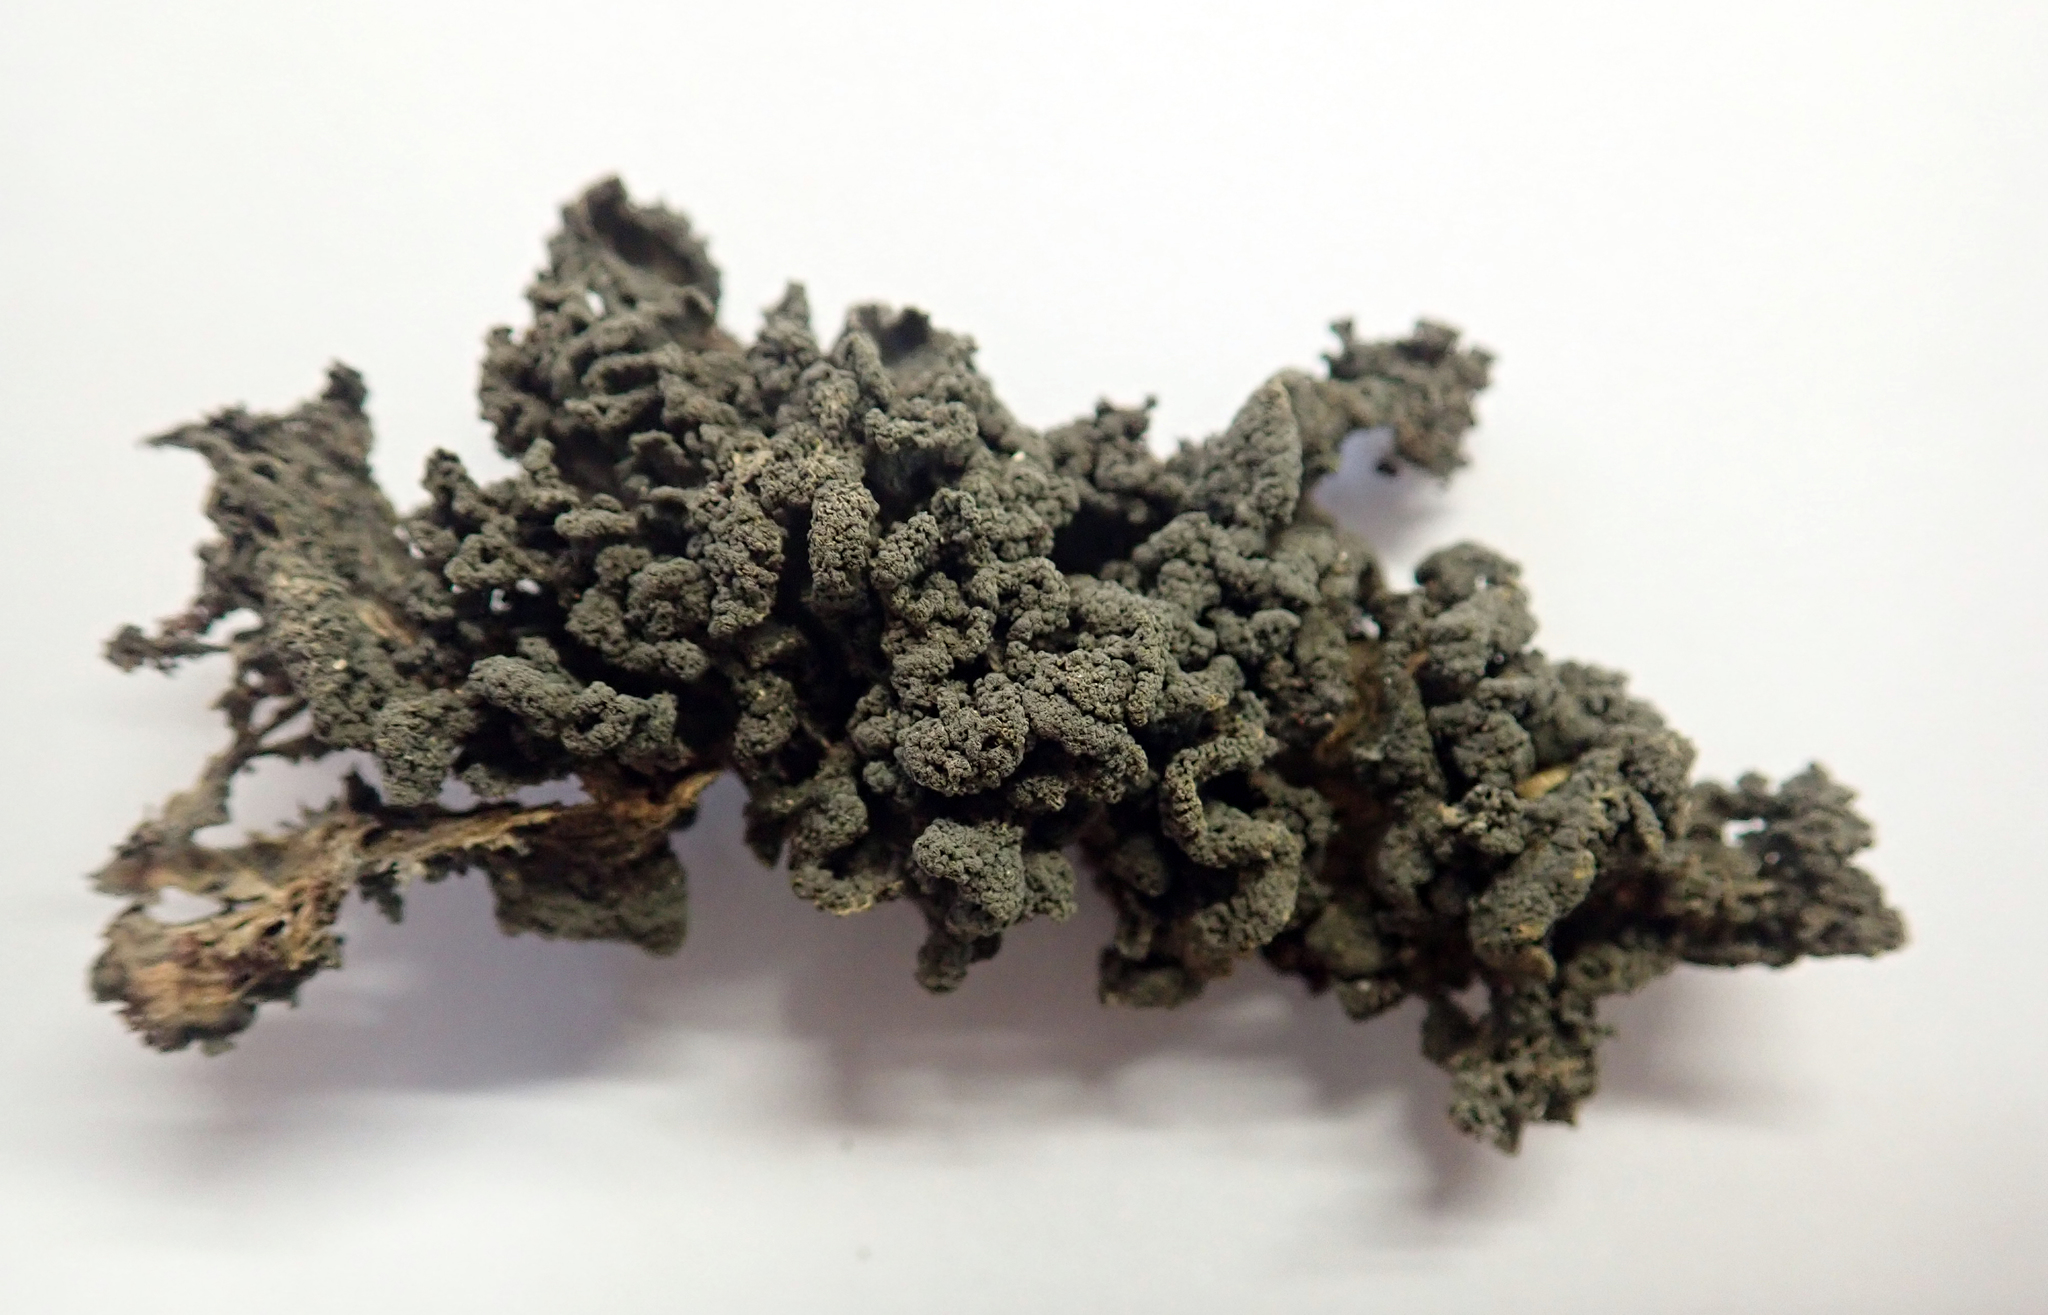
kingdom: Fungi
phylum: Ascomycota
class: Lecanoromycetes
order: Peltigerales
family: Collemataceae
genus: Leptogium
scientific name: Leptogium coralloideum
